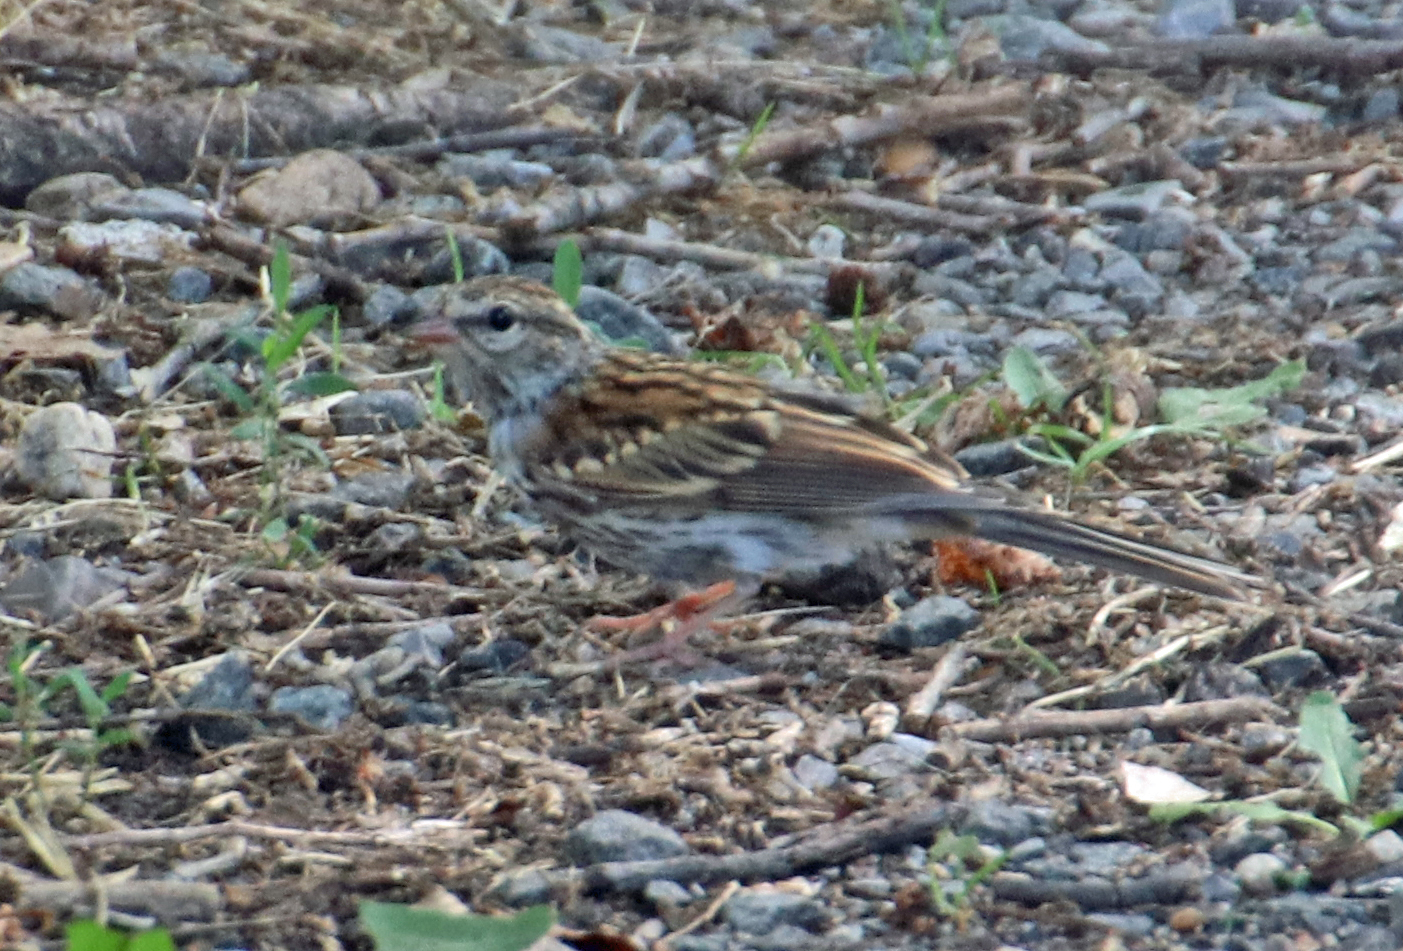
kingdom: Animalia
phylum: Chordata
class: Aves
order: Passeriformes
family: Passerellidae
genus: Spizella
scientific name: Spizella passerina
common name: Chipping sparrow
